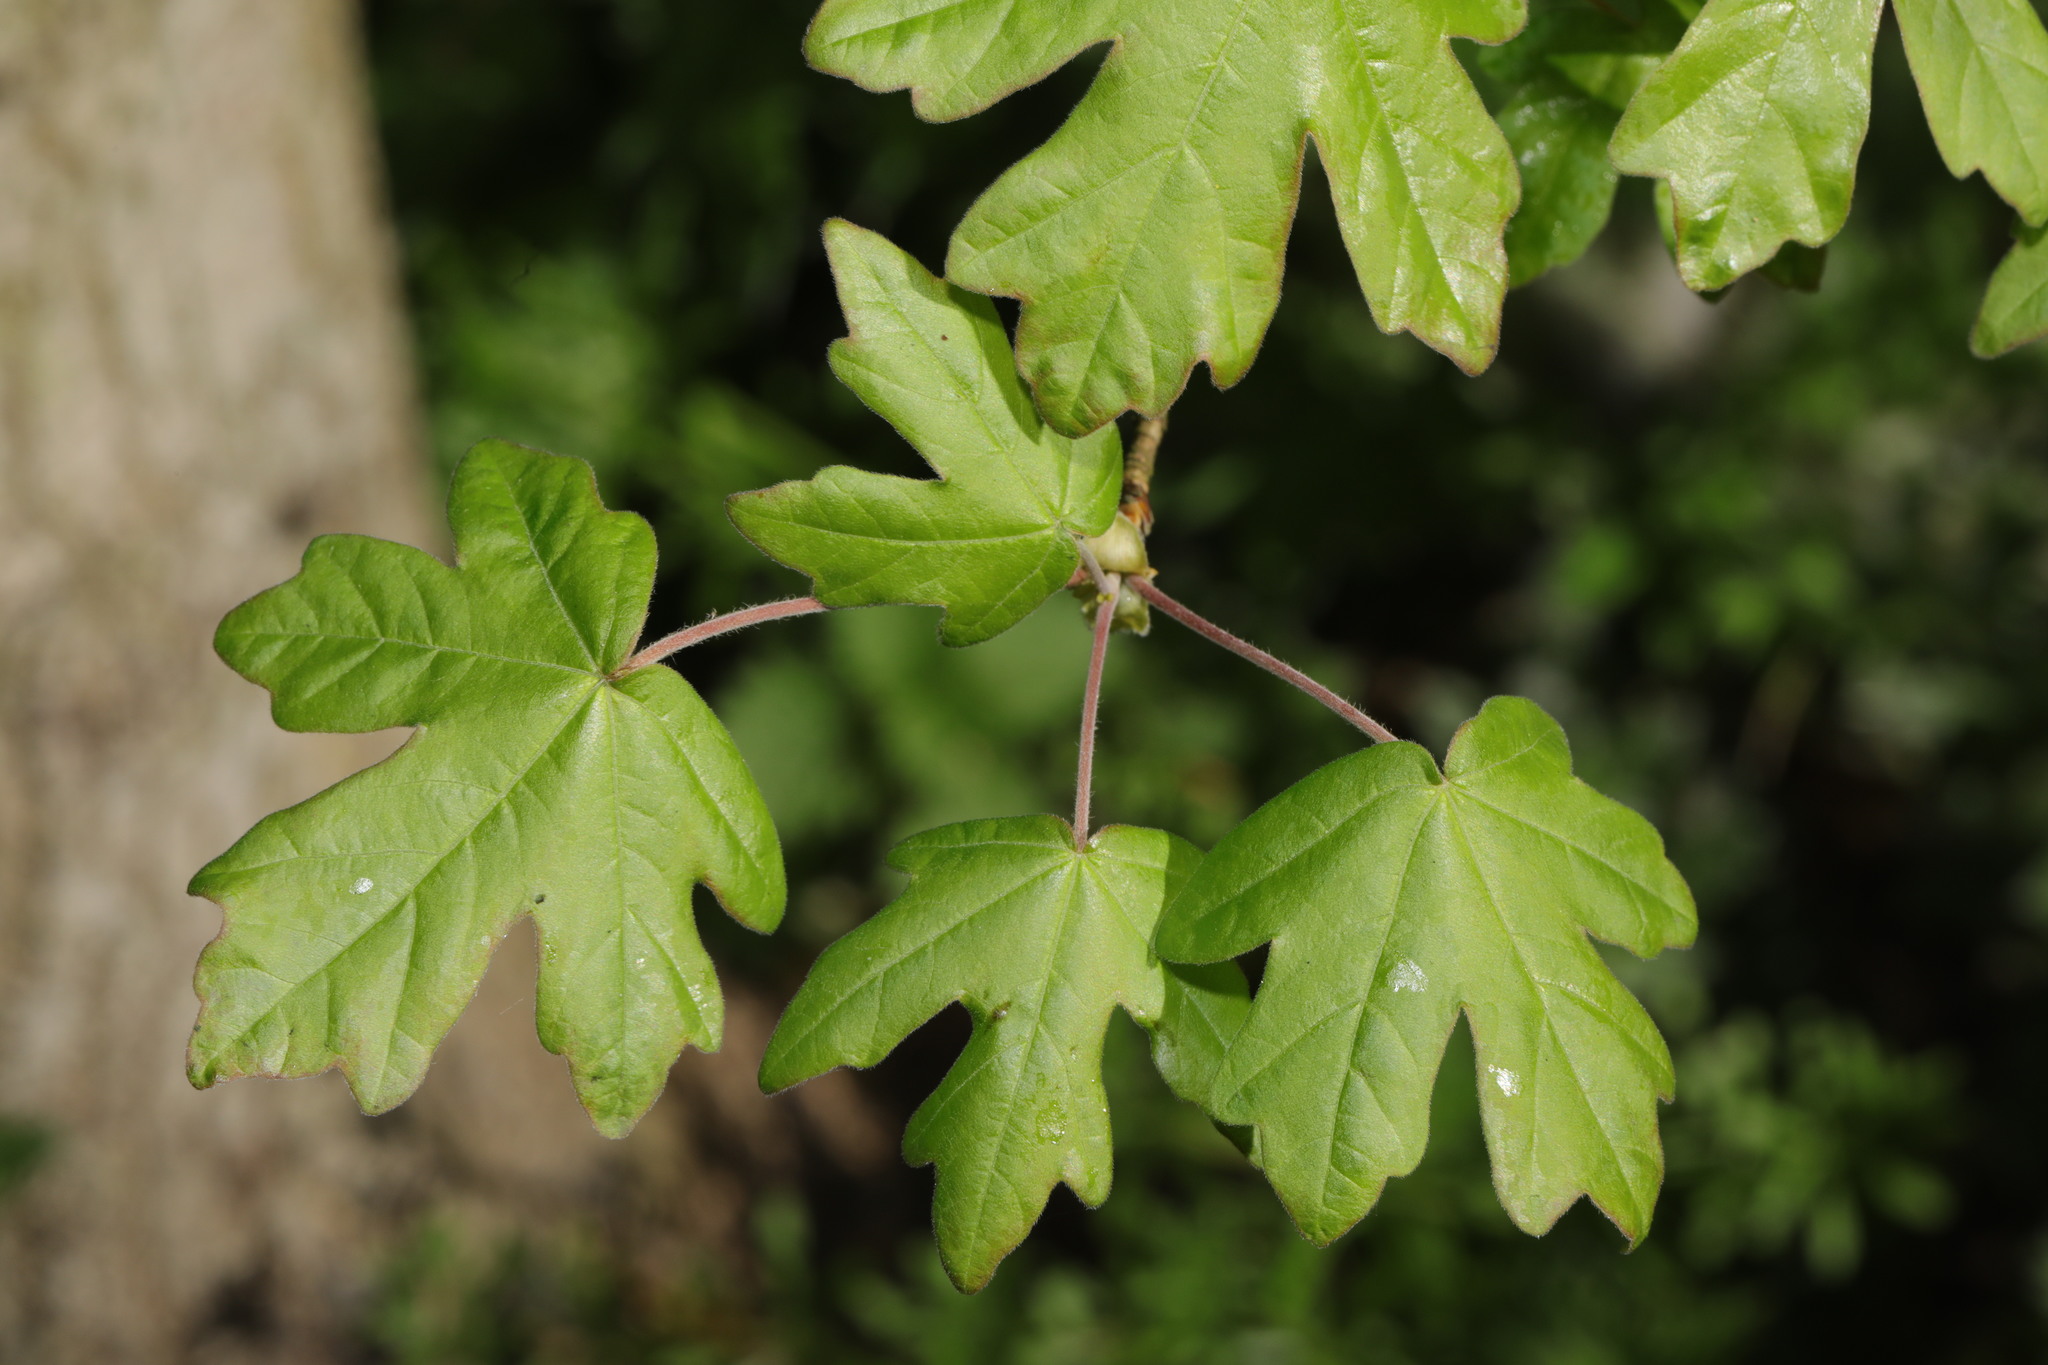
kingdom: Plantae
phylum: Tracheophyta
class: Magnoliopsida
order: Sapindales
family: Sapindaceae
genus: Acer
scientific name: Acer campestre
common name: Field maple
